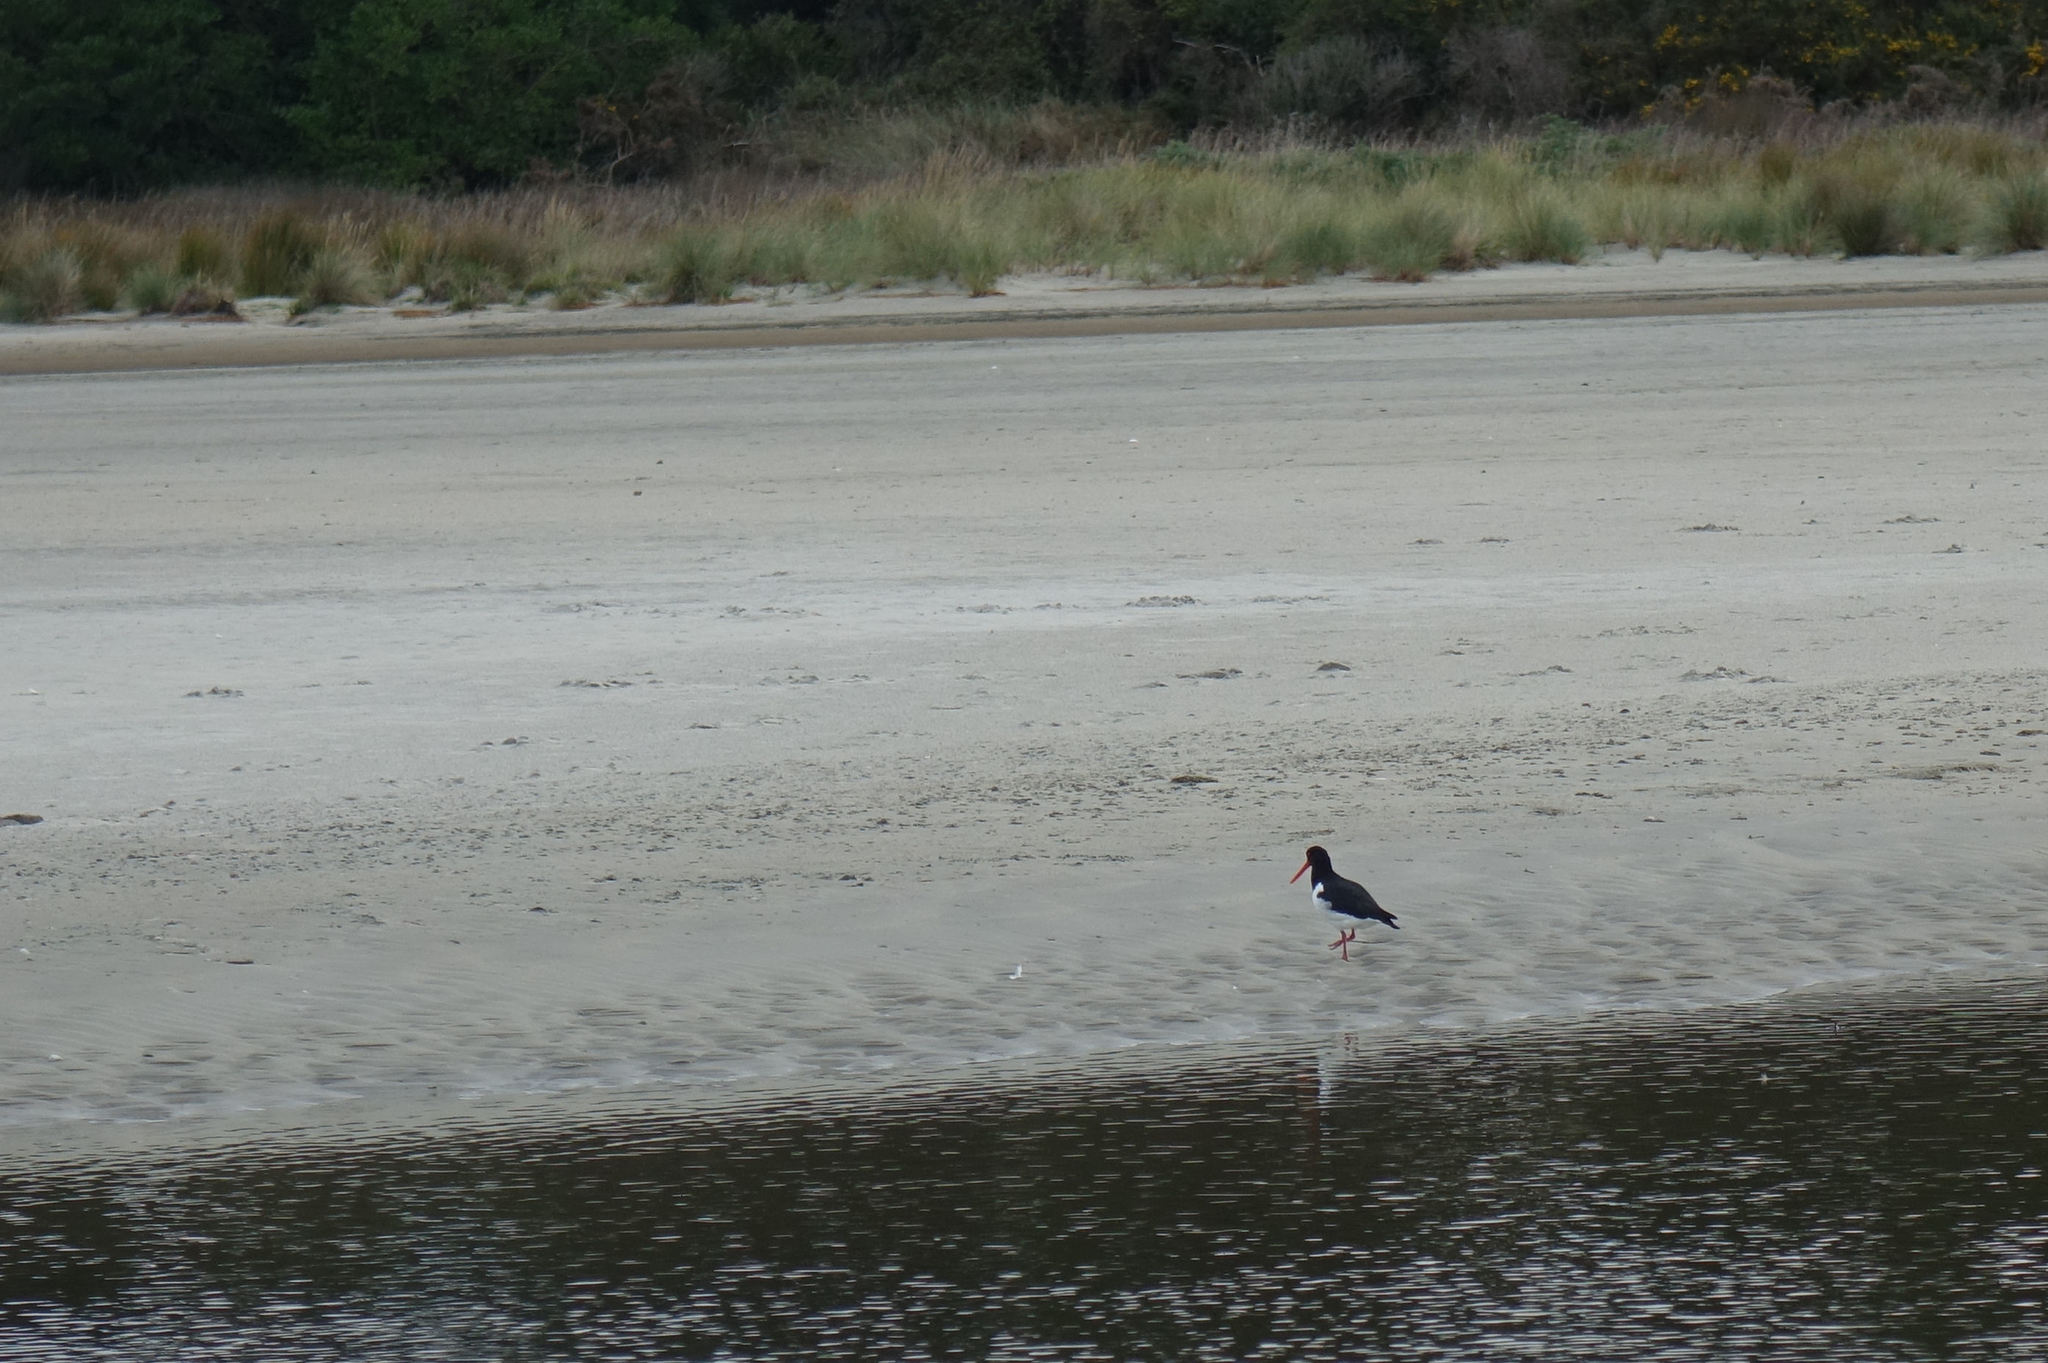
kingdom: Animalia
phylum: Chordata
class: Aves
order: Charadriiformes
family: Haematopodidae
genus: Haematopus
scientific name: Haematopus finschi
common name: South island oystercatcher
